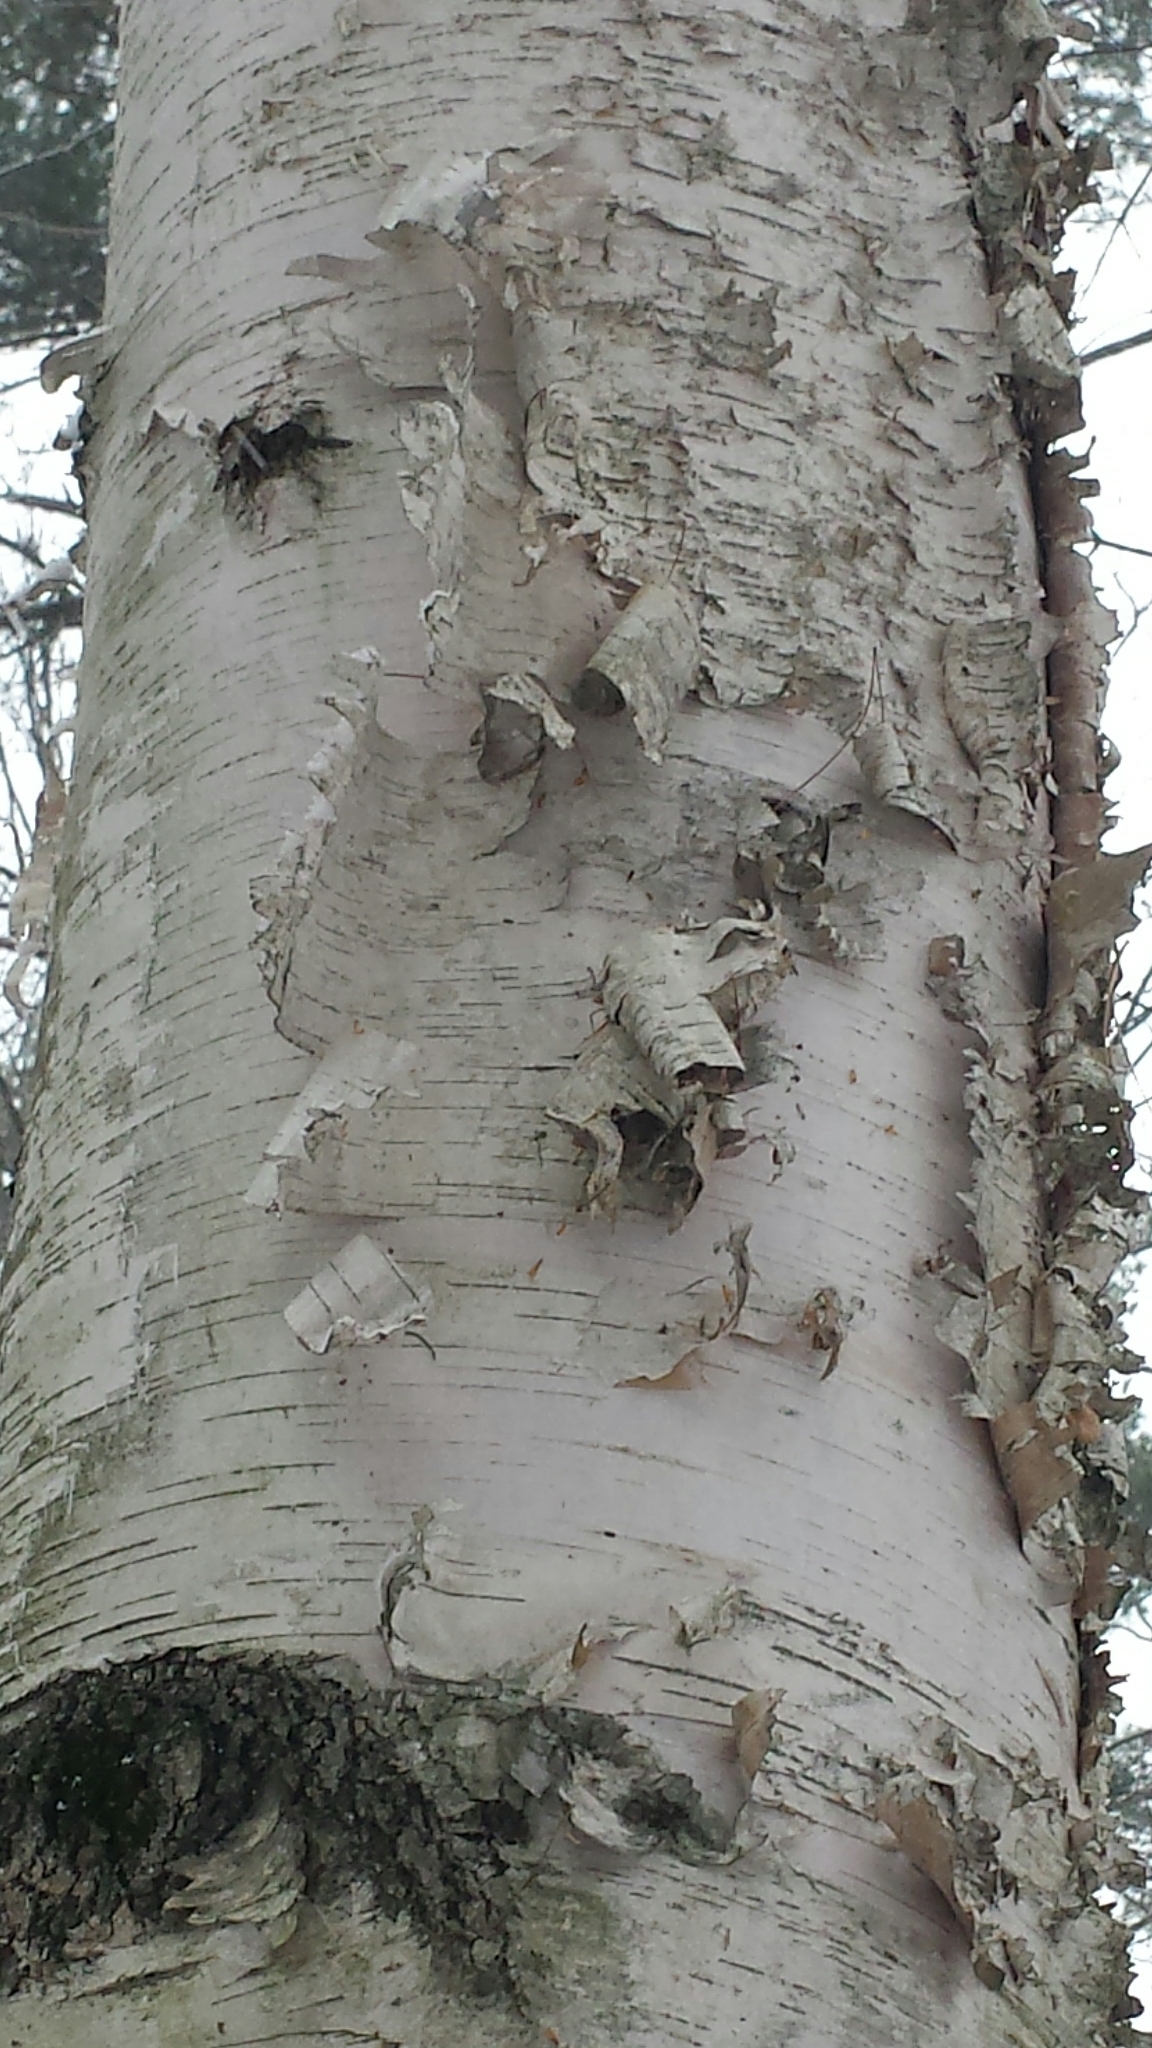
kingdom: Plantae
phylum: Tracheophyta
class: Magnoliopsida
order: Fagales
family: Betulaceae
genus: Betula
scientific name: Betula papyrifera
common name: Paper birch
